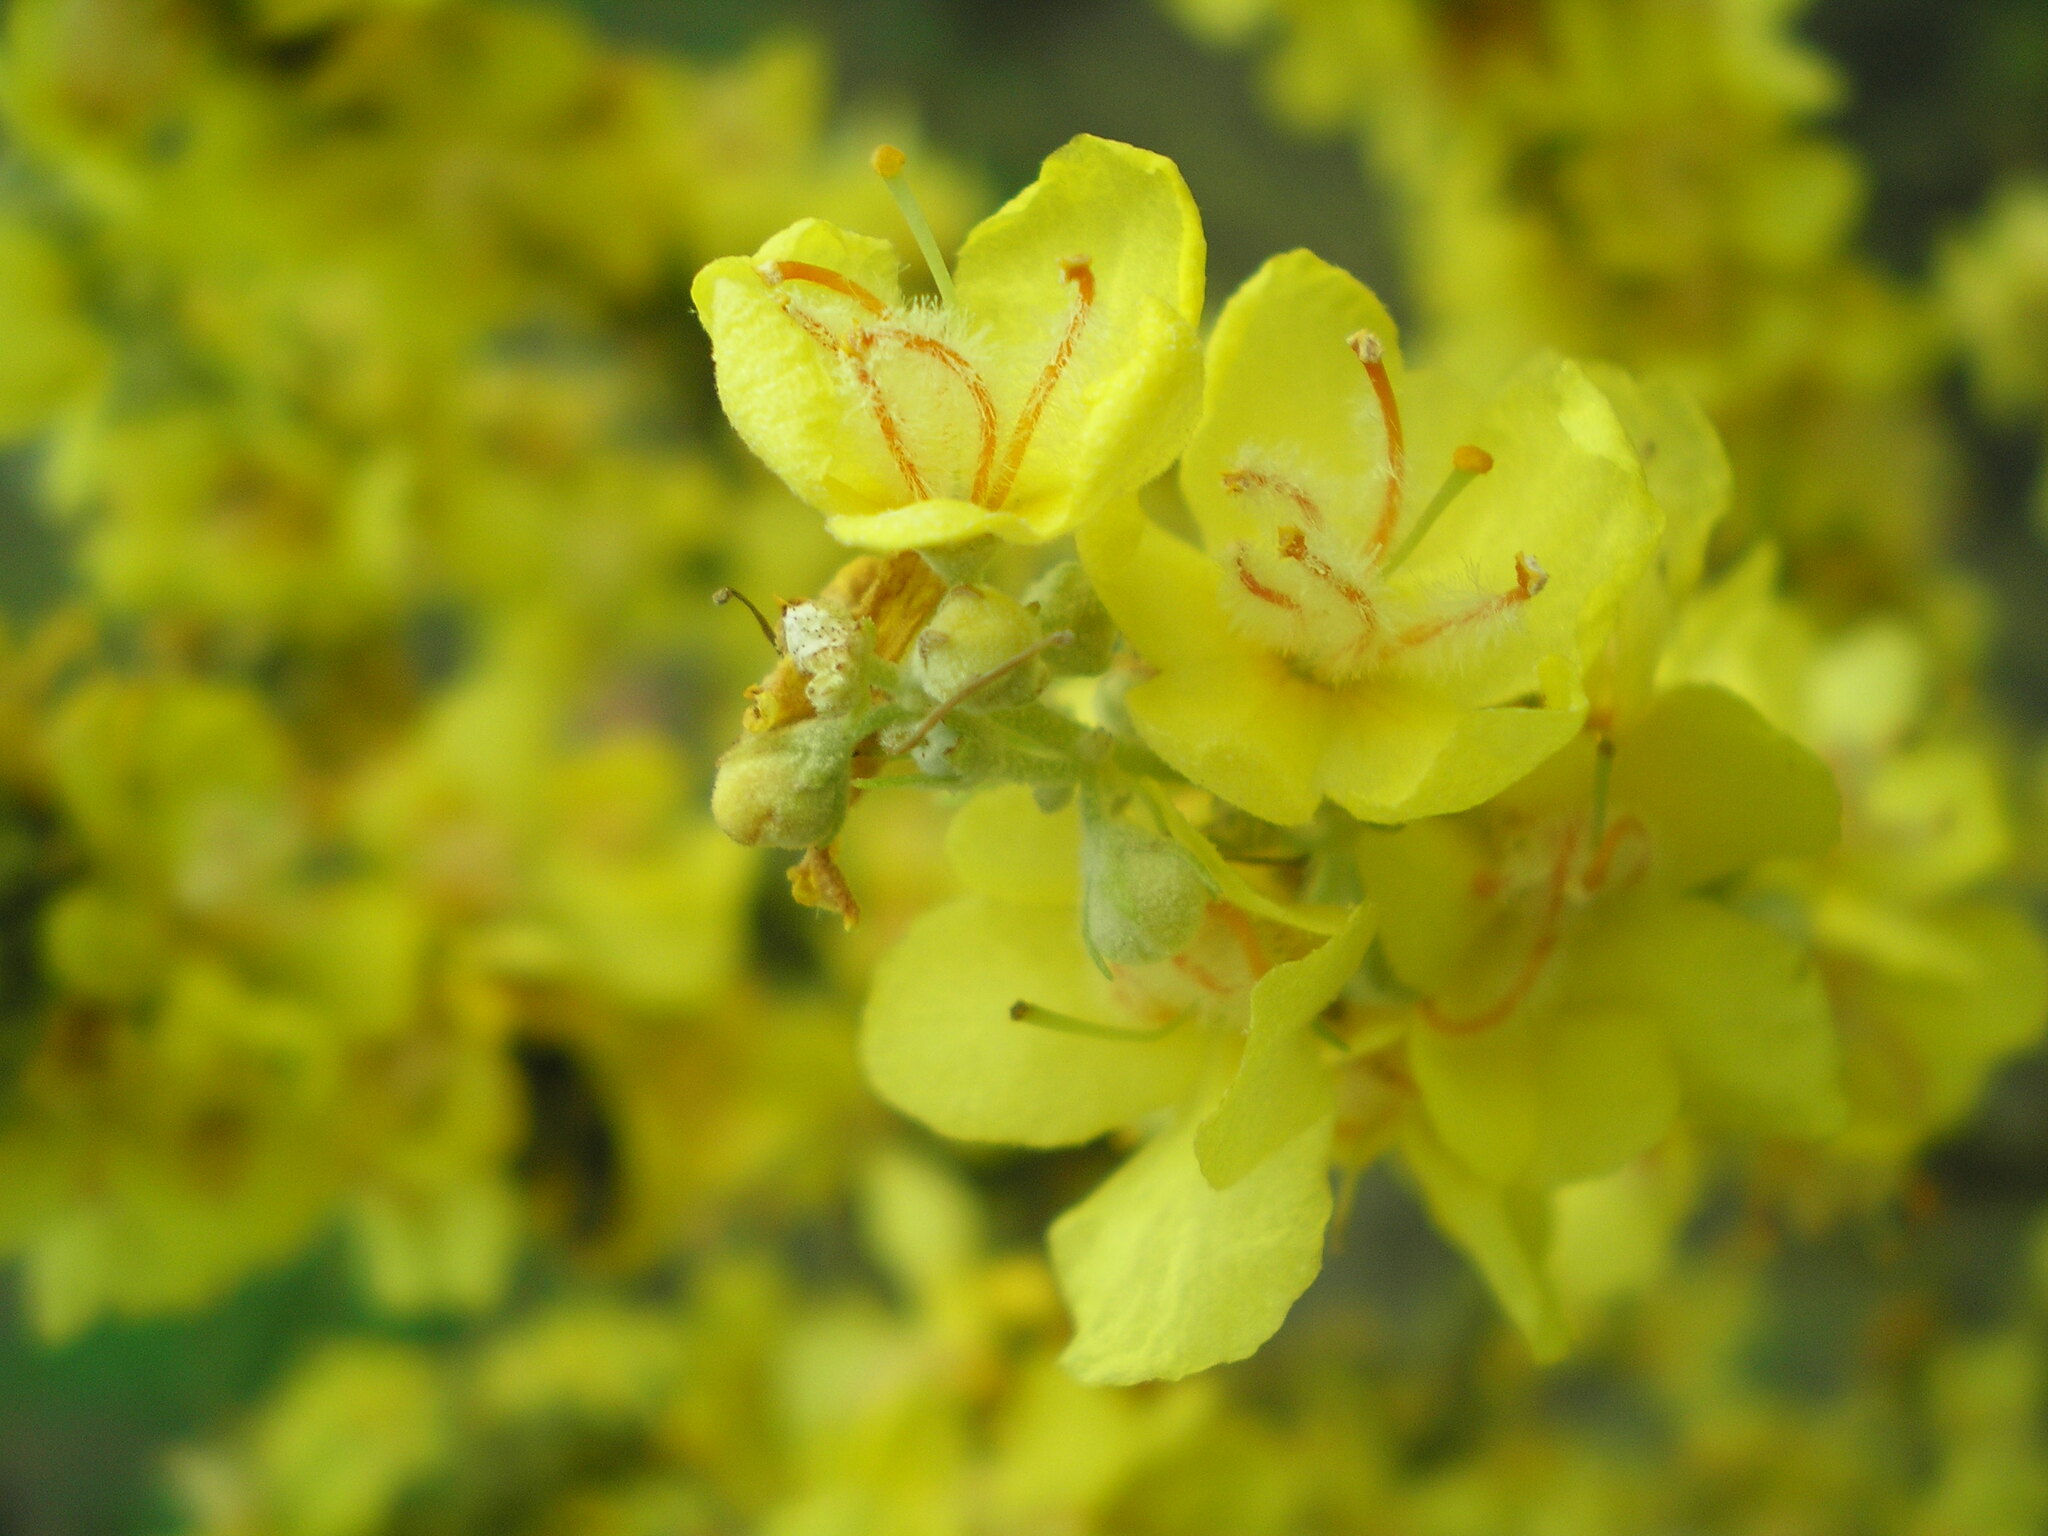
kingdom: Plantae
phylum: Tracheophyta
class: Magnoliopsida
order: Lamiales
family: Scrophulariaceae
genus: Verbascum
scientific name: Verbascum lychnitis
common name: White mullein
